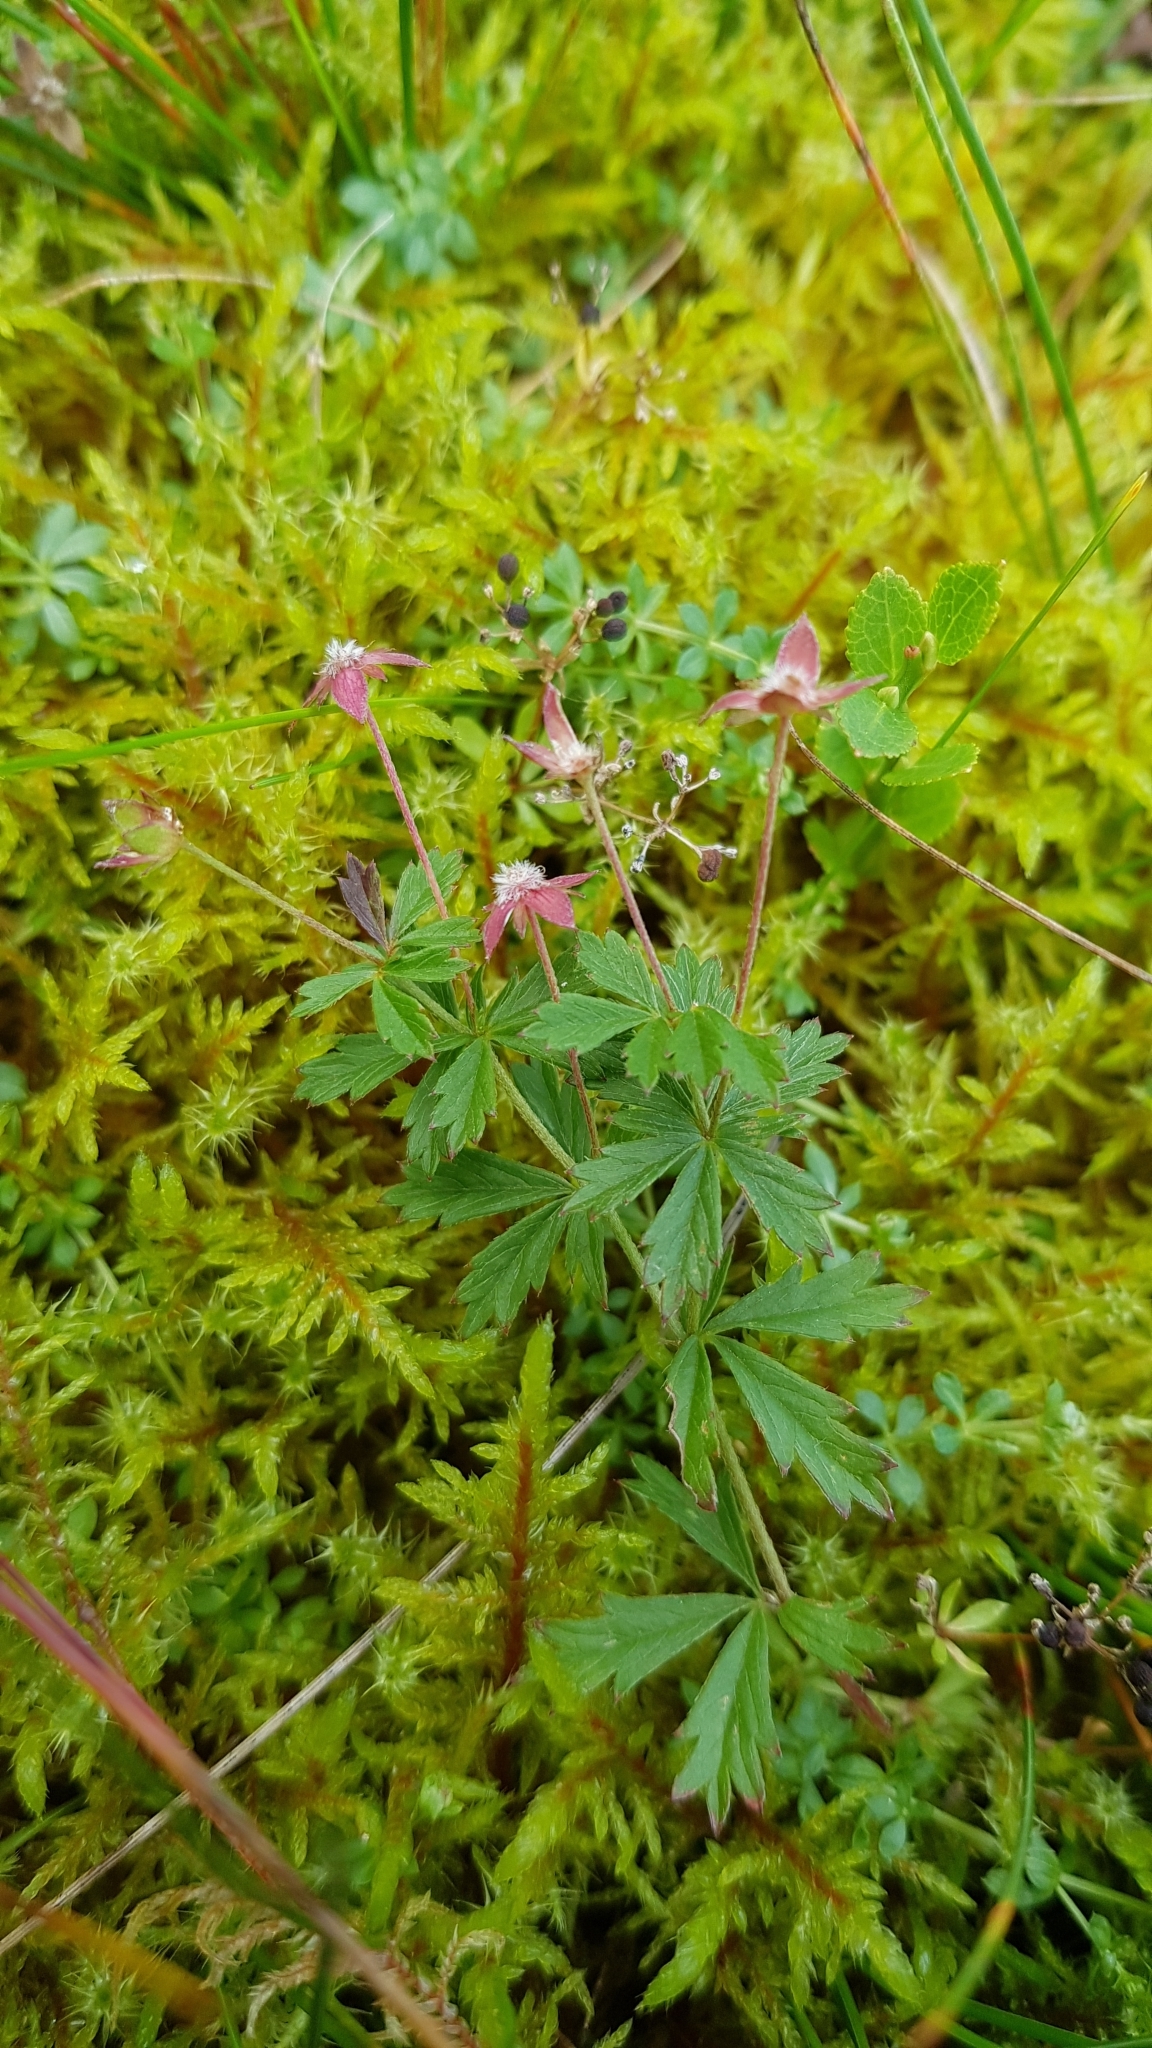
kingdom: Plantae
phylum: Tracheophyta
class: Magnoliopsida
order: Rosales
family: Rosaceae
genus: Comarum
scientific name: Comarum palustre
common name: Marsh cinquefoil
